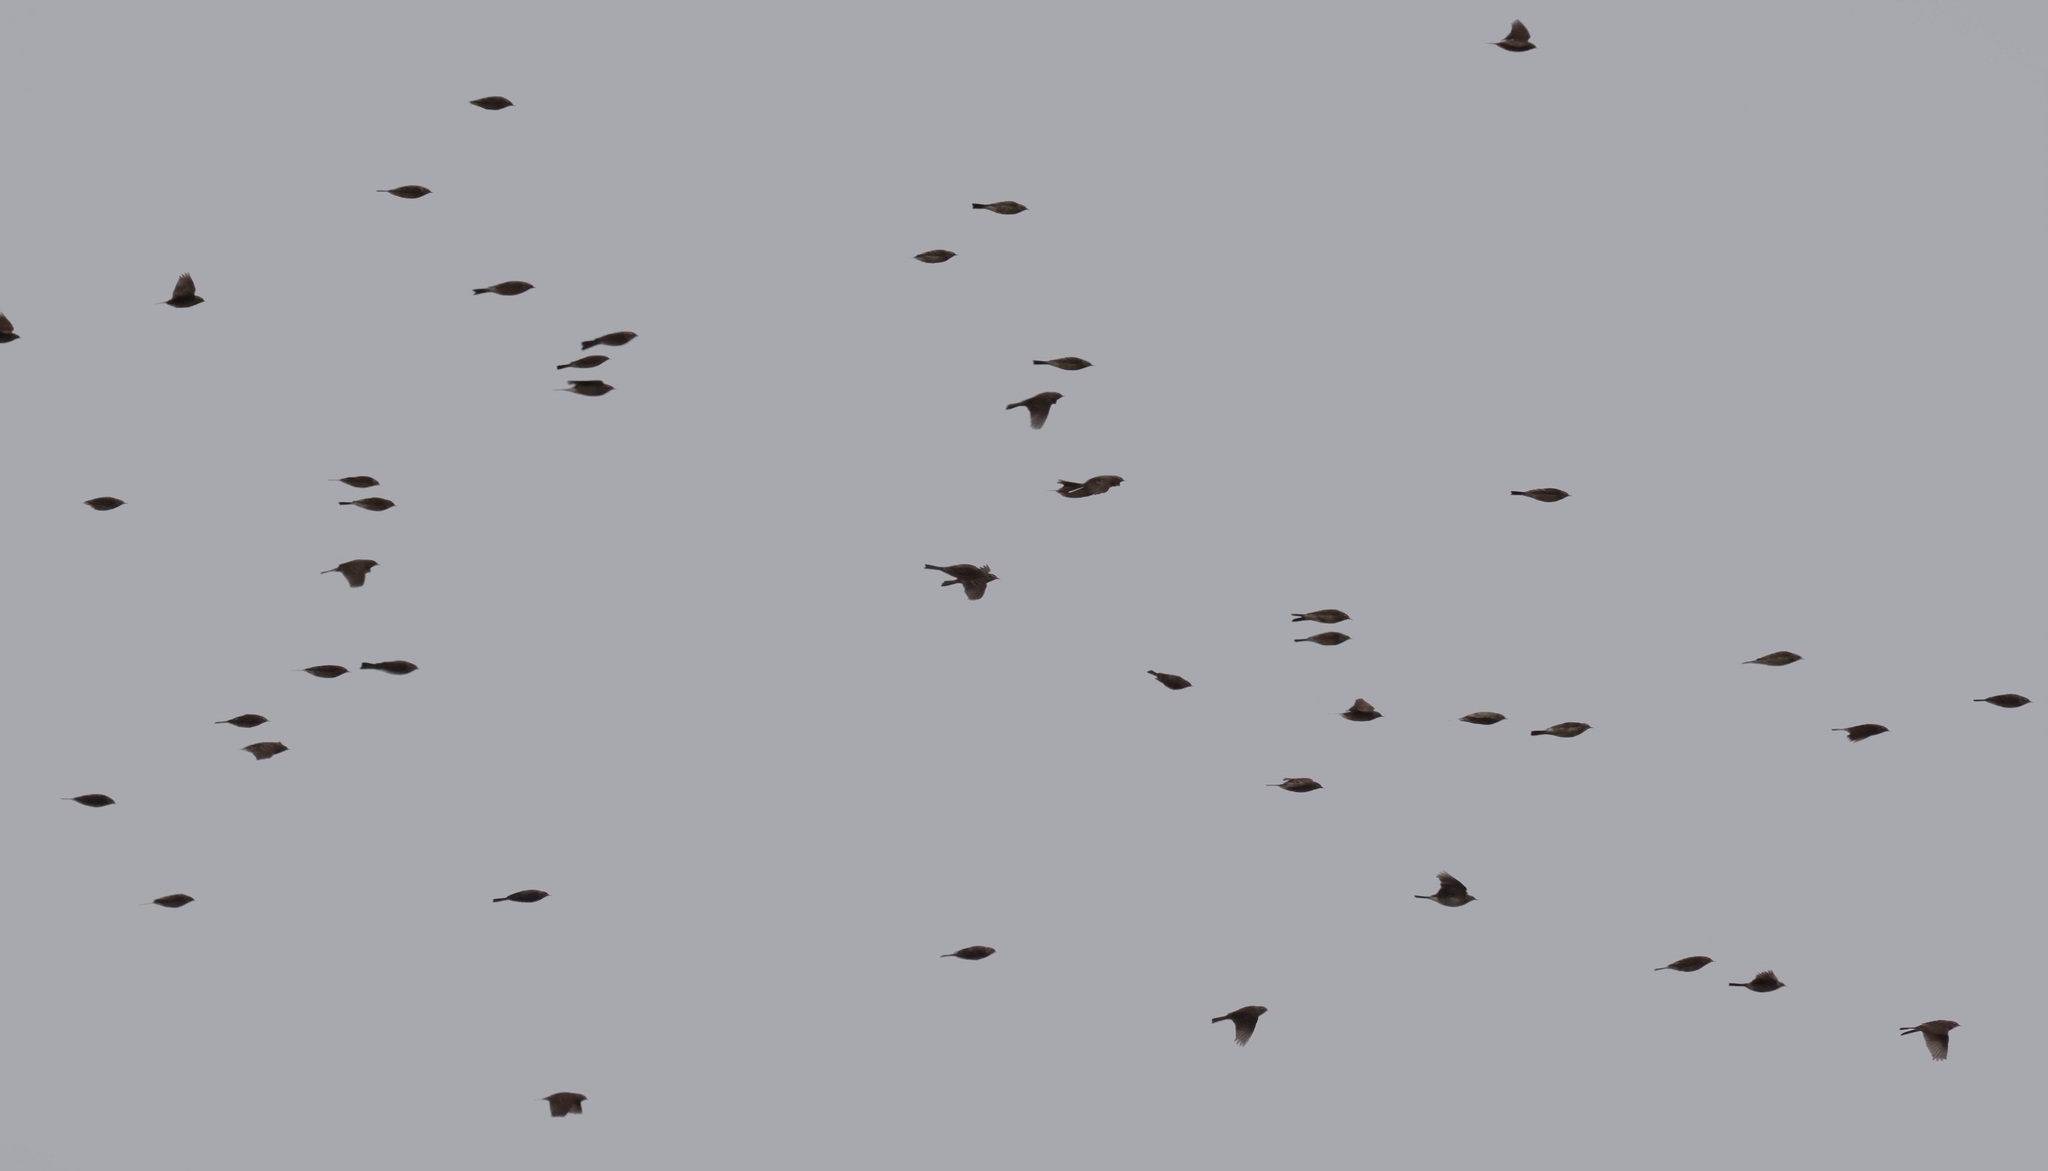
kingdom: Animalia
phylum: Chordata
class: Aves
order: Passeriformes
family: Motacillidae
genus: Anthus
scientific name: Anthus rubescens
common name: Buff-bellied pipit
